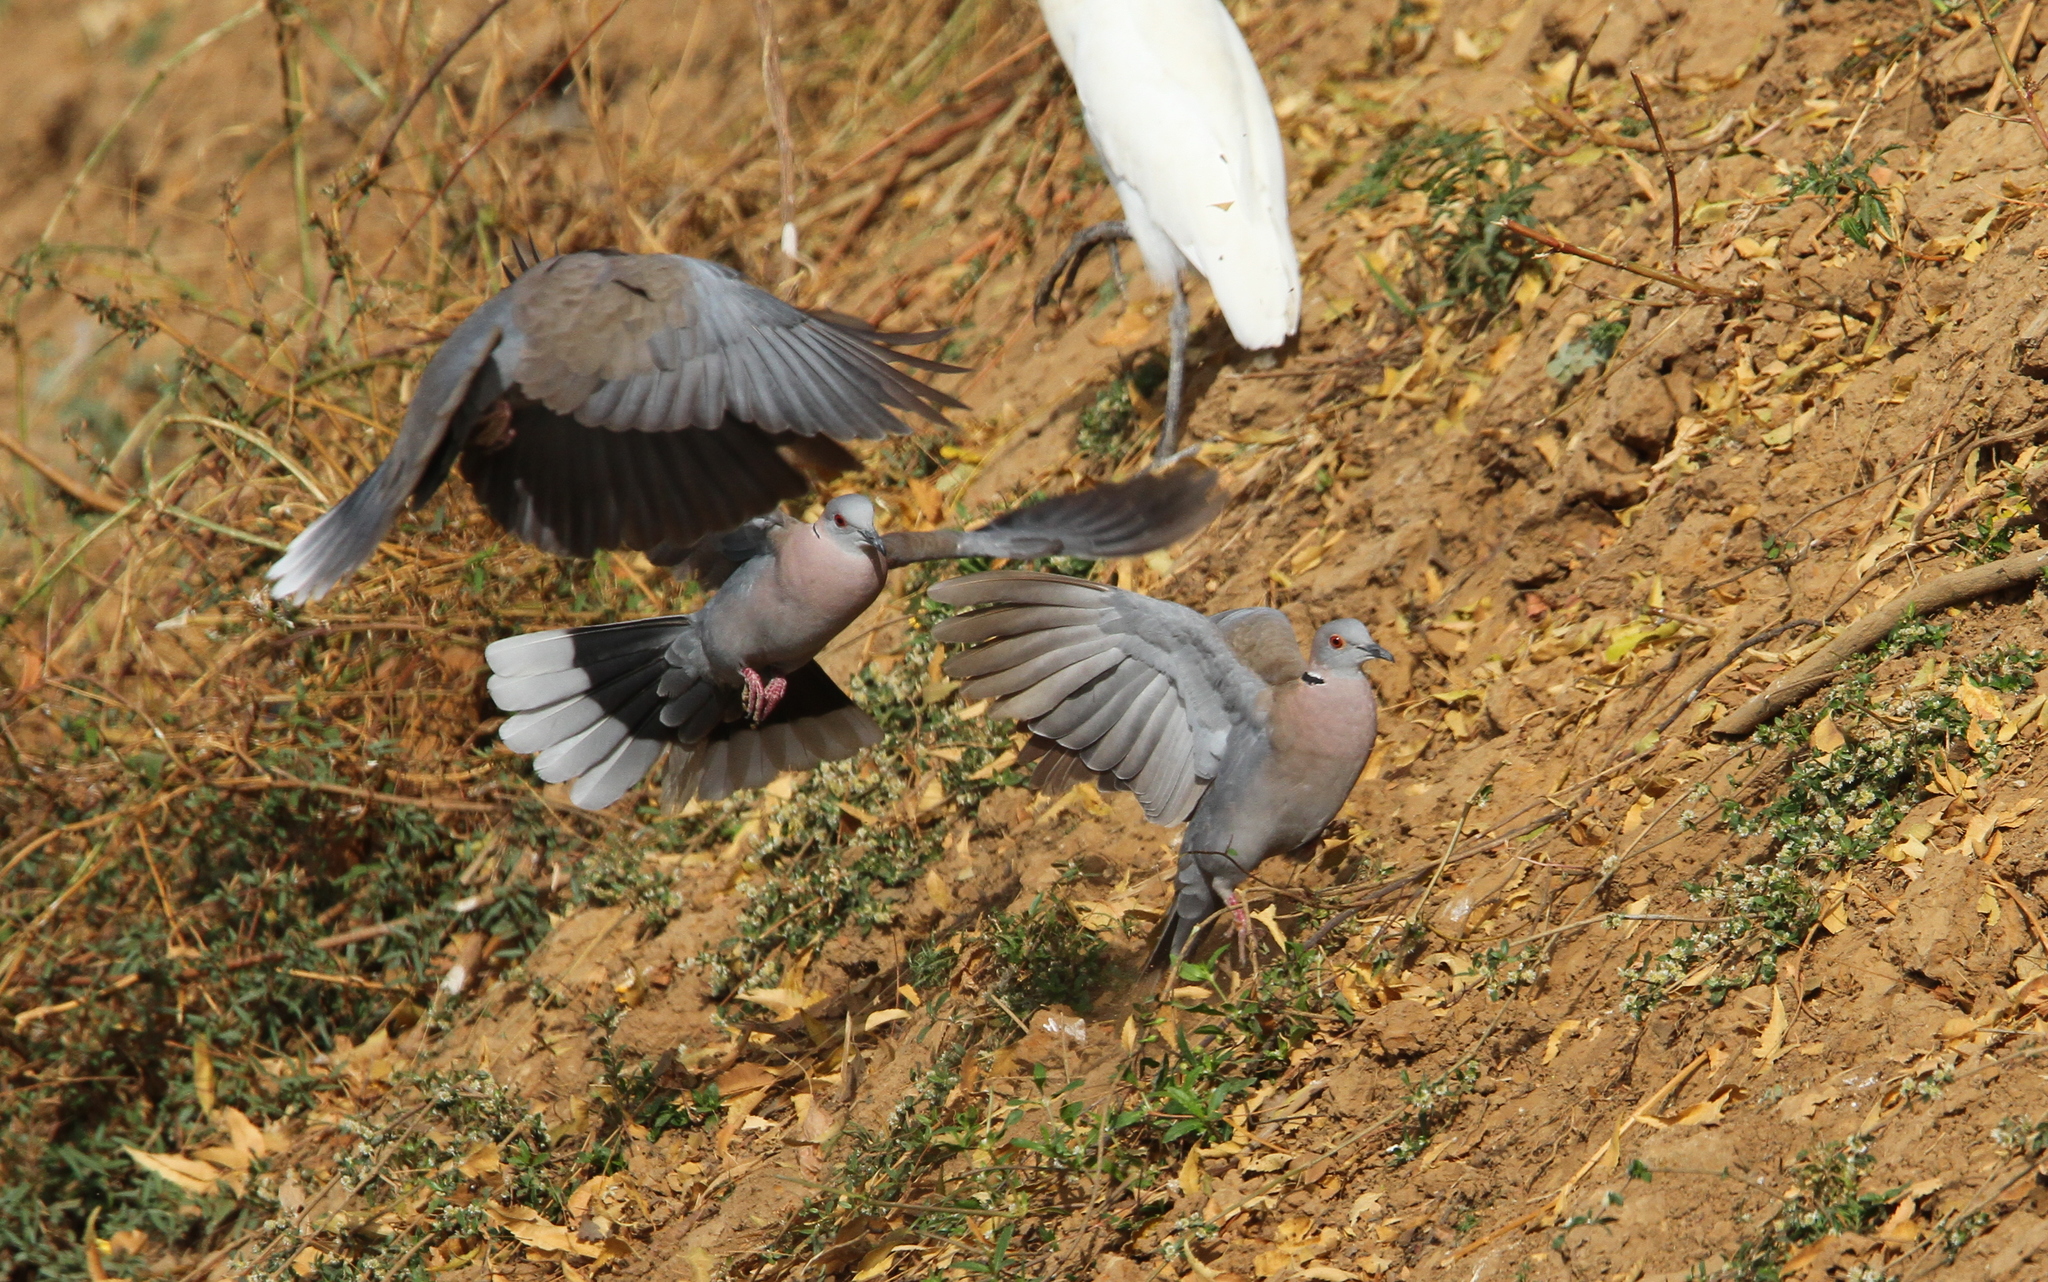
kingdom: Animalia
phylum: Chordata
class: Aves
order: Columbiformes
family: Columbidae
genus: Streptopelia
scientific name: Streptopelia decipiens
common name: Mourning collared dove
